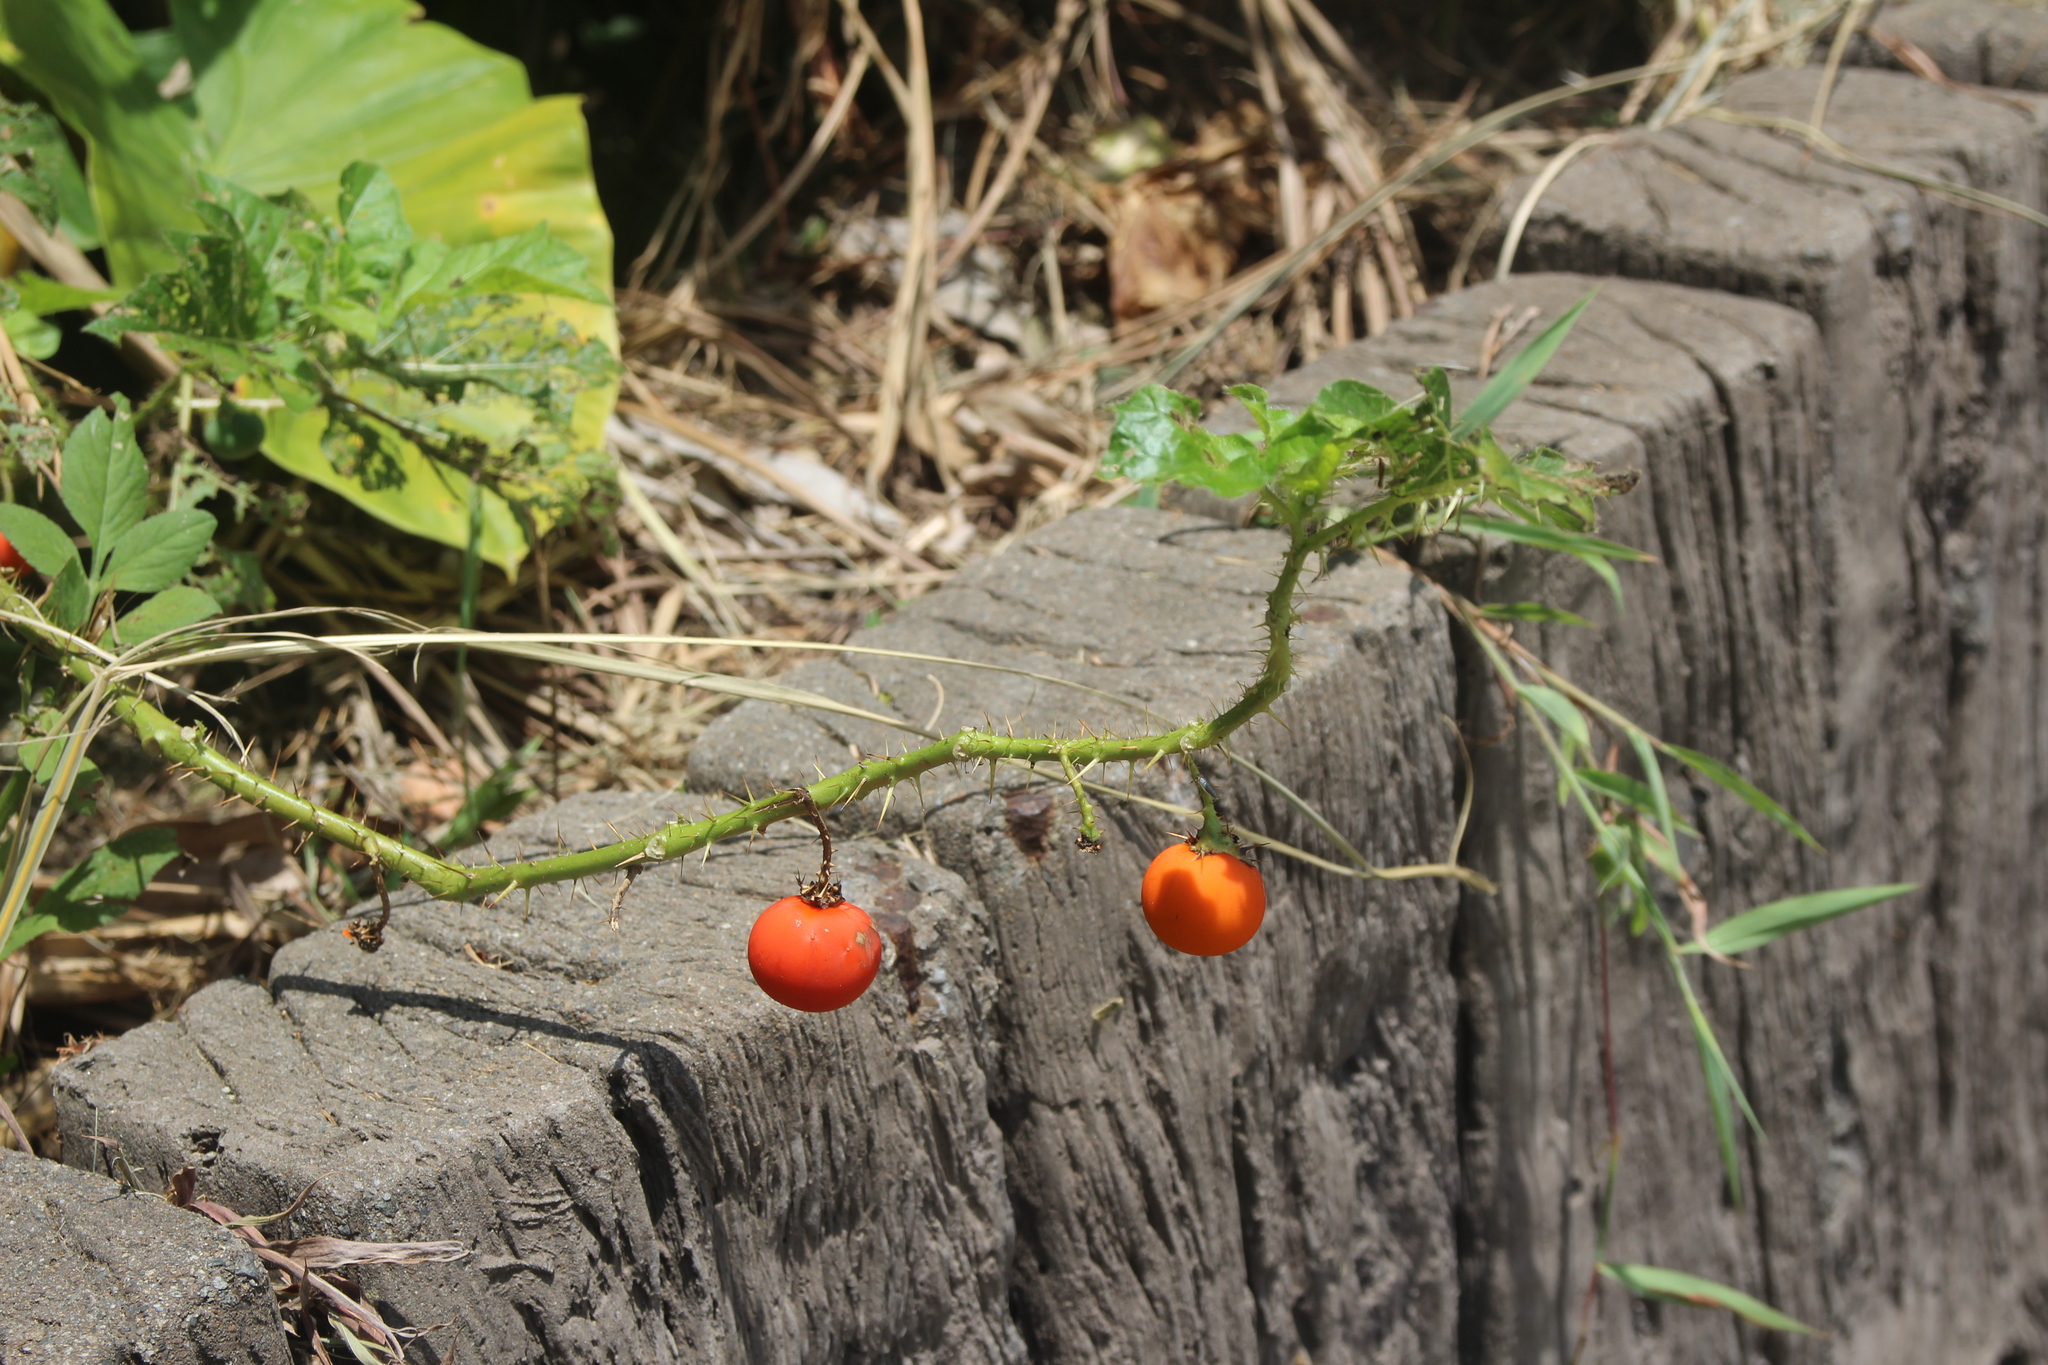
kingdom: Plantae
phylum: Tracheophyta
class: Magnoliopsida
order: Solanales
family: Solanaceae
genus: Solanum
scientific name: Solanum capsicoides
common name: Cockroach berry
